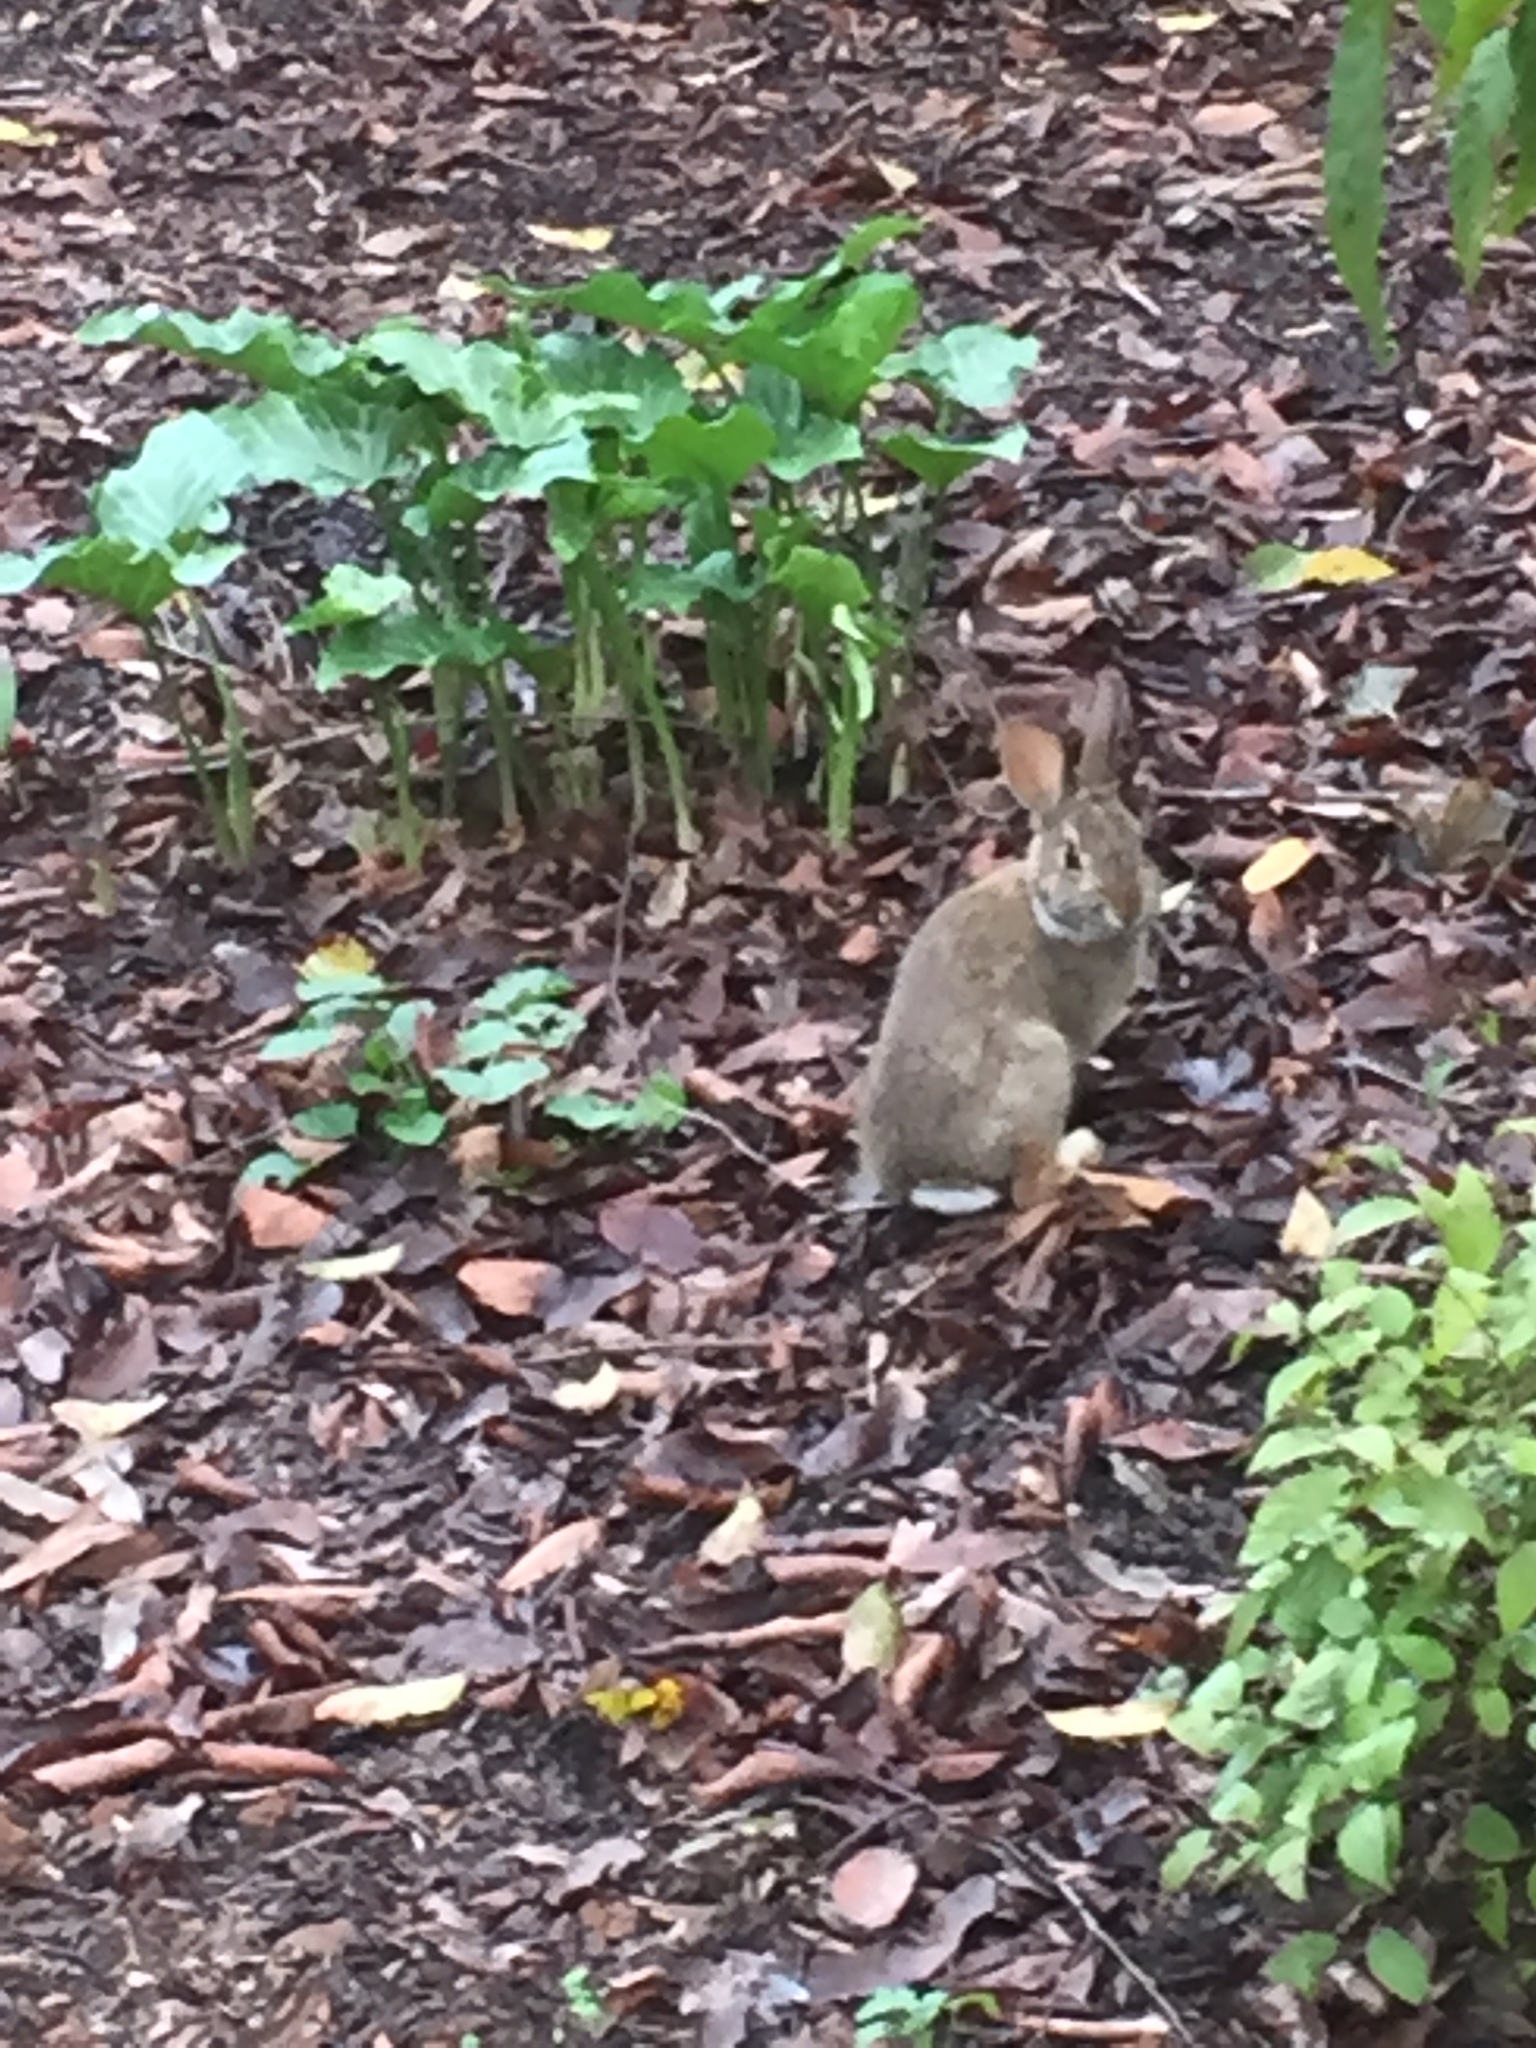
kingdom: Animalia
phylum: Chordata
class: Mammalia
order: Lagomorpha
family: Leporidae
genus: Sylvilagus
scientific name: Sylvilagus floridanus
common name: Eastern cottontail
